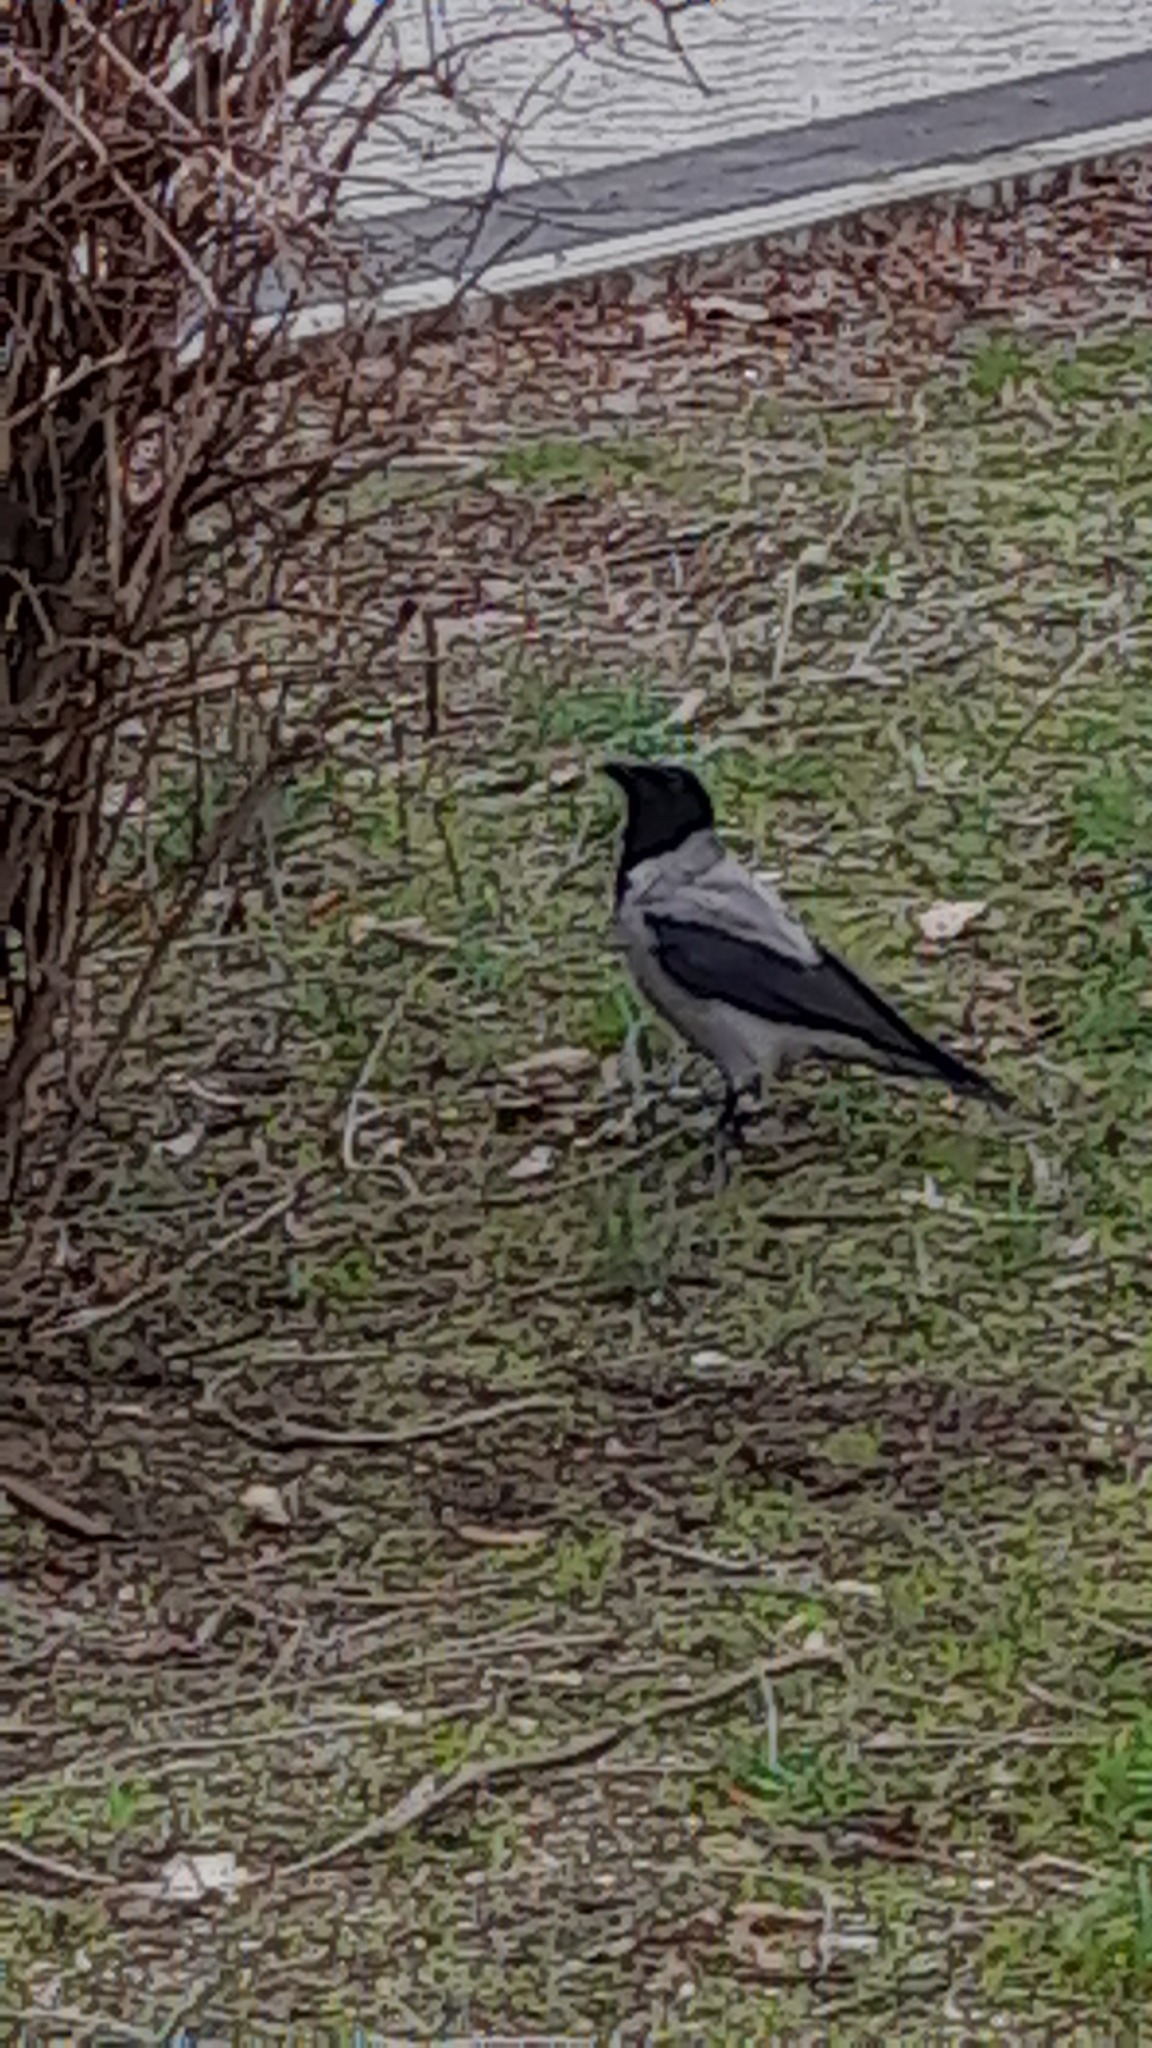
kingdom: Animalia
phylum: Chordata
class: Aves
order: Passeriformes
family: Corvidae
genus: Corvus
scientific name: Corvus cornix
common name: Hooded crow
